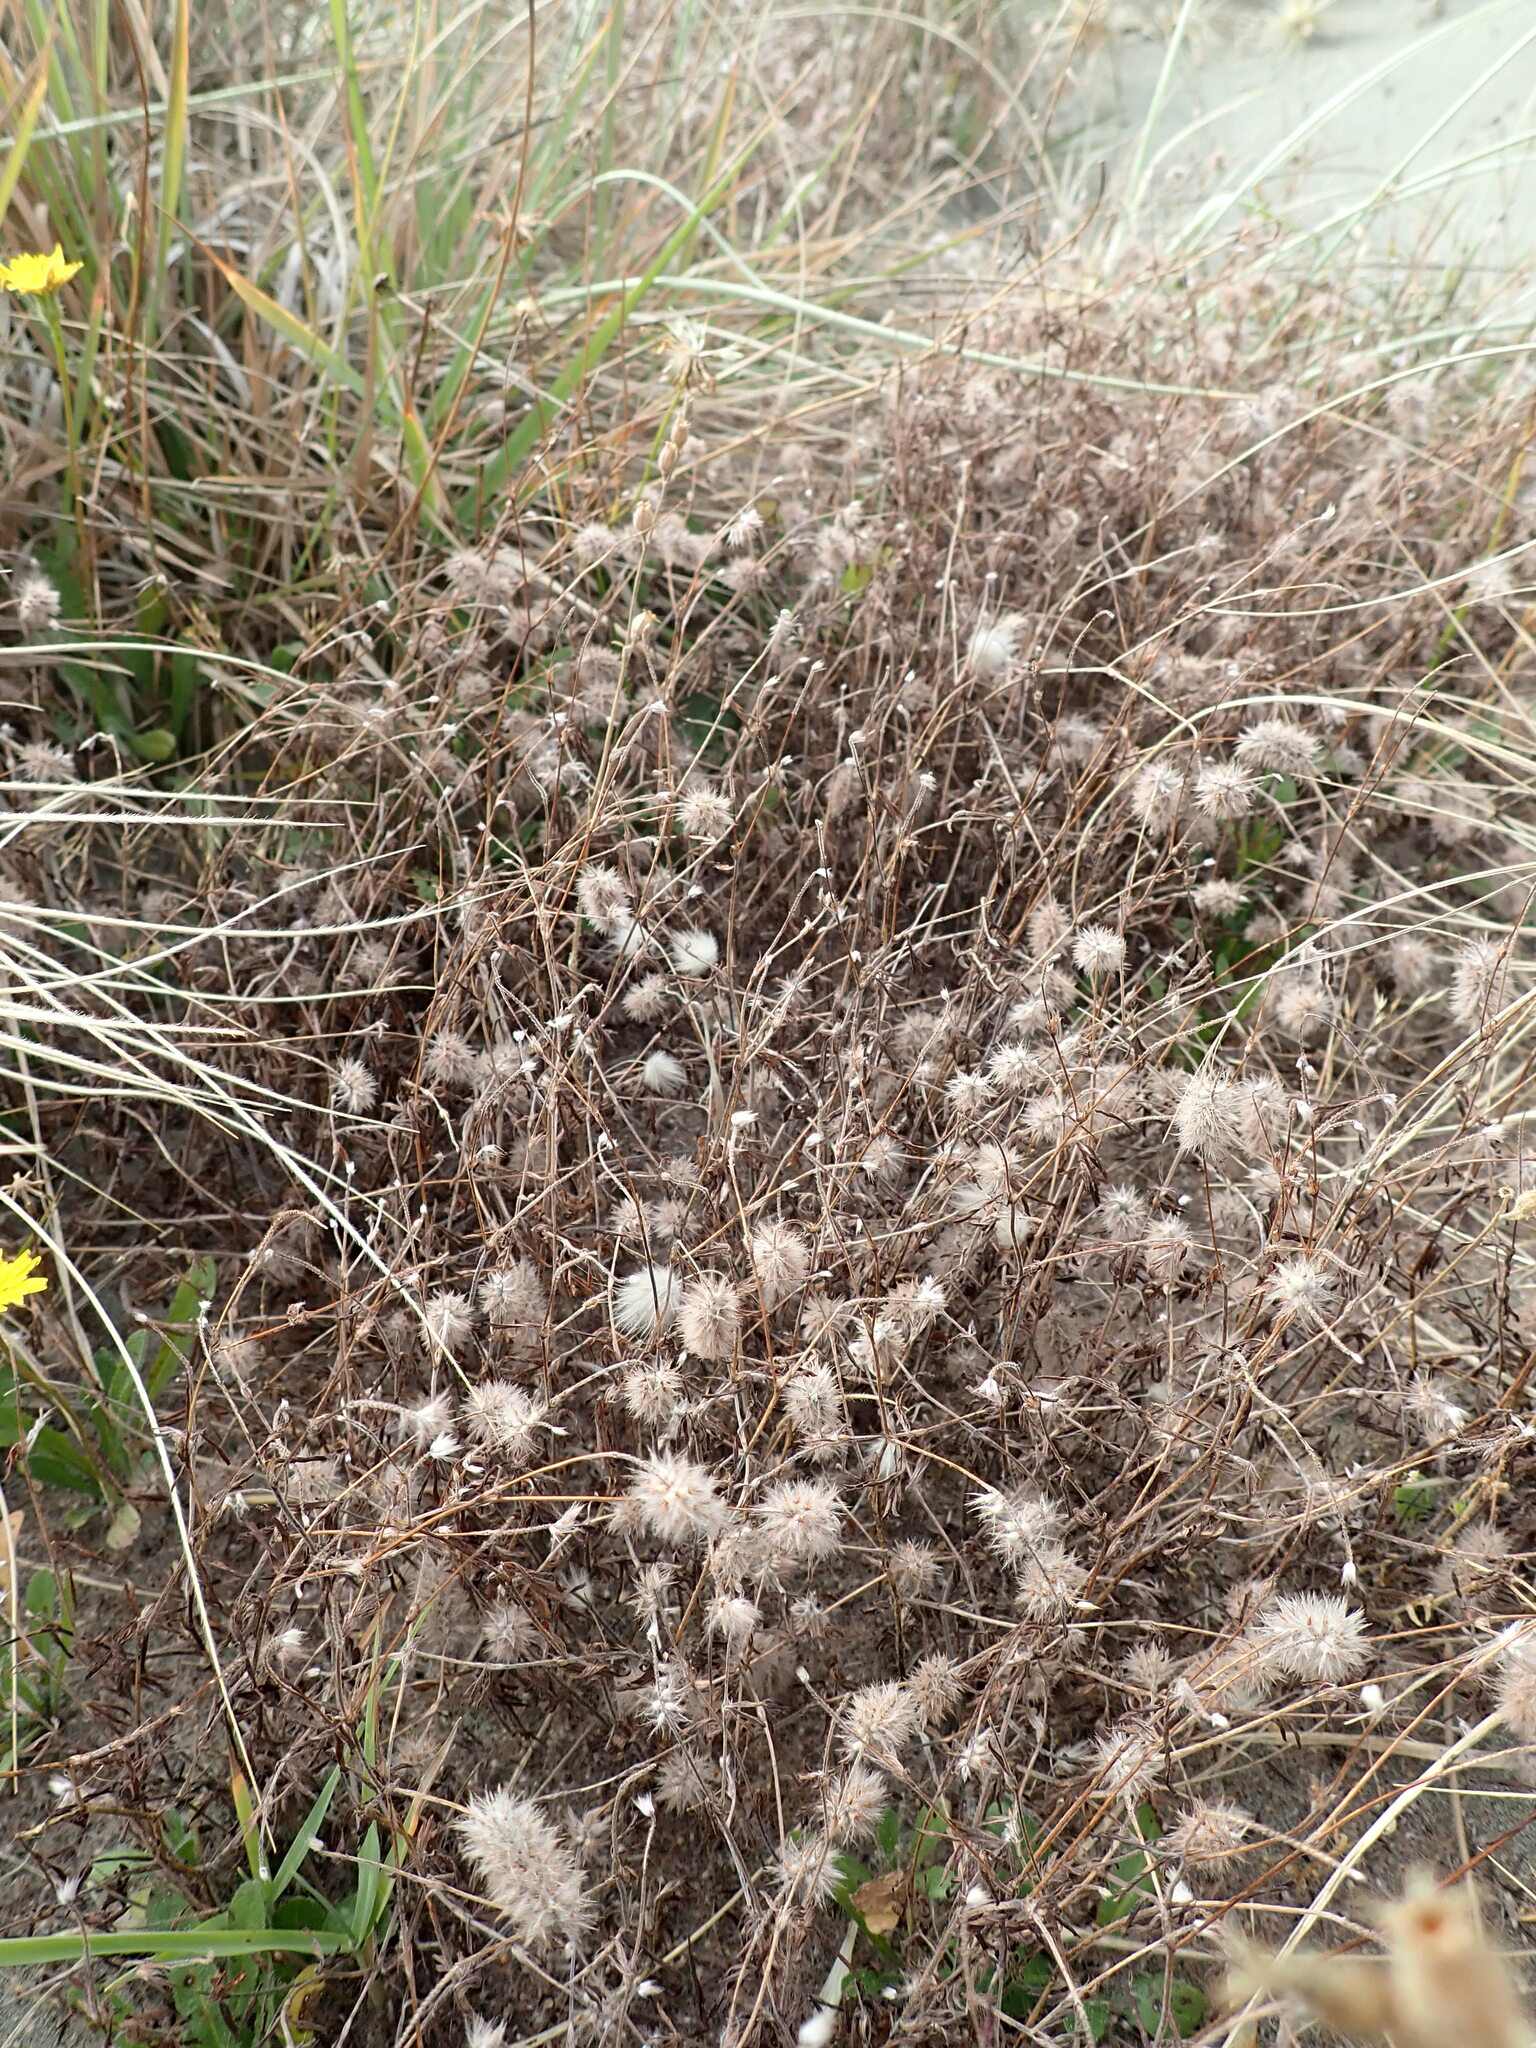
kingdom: Plantae
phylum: Tracheophyta
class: Magnoliopsida
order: Fabales
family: Fabaceae
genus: Trifolium
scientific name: Trifolium arvense
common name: Hare's-foot clover
